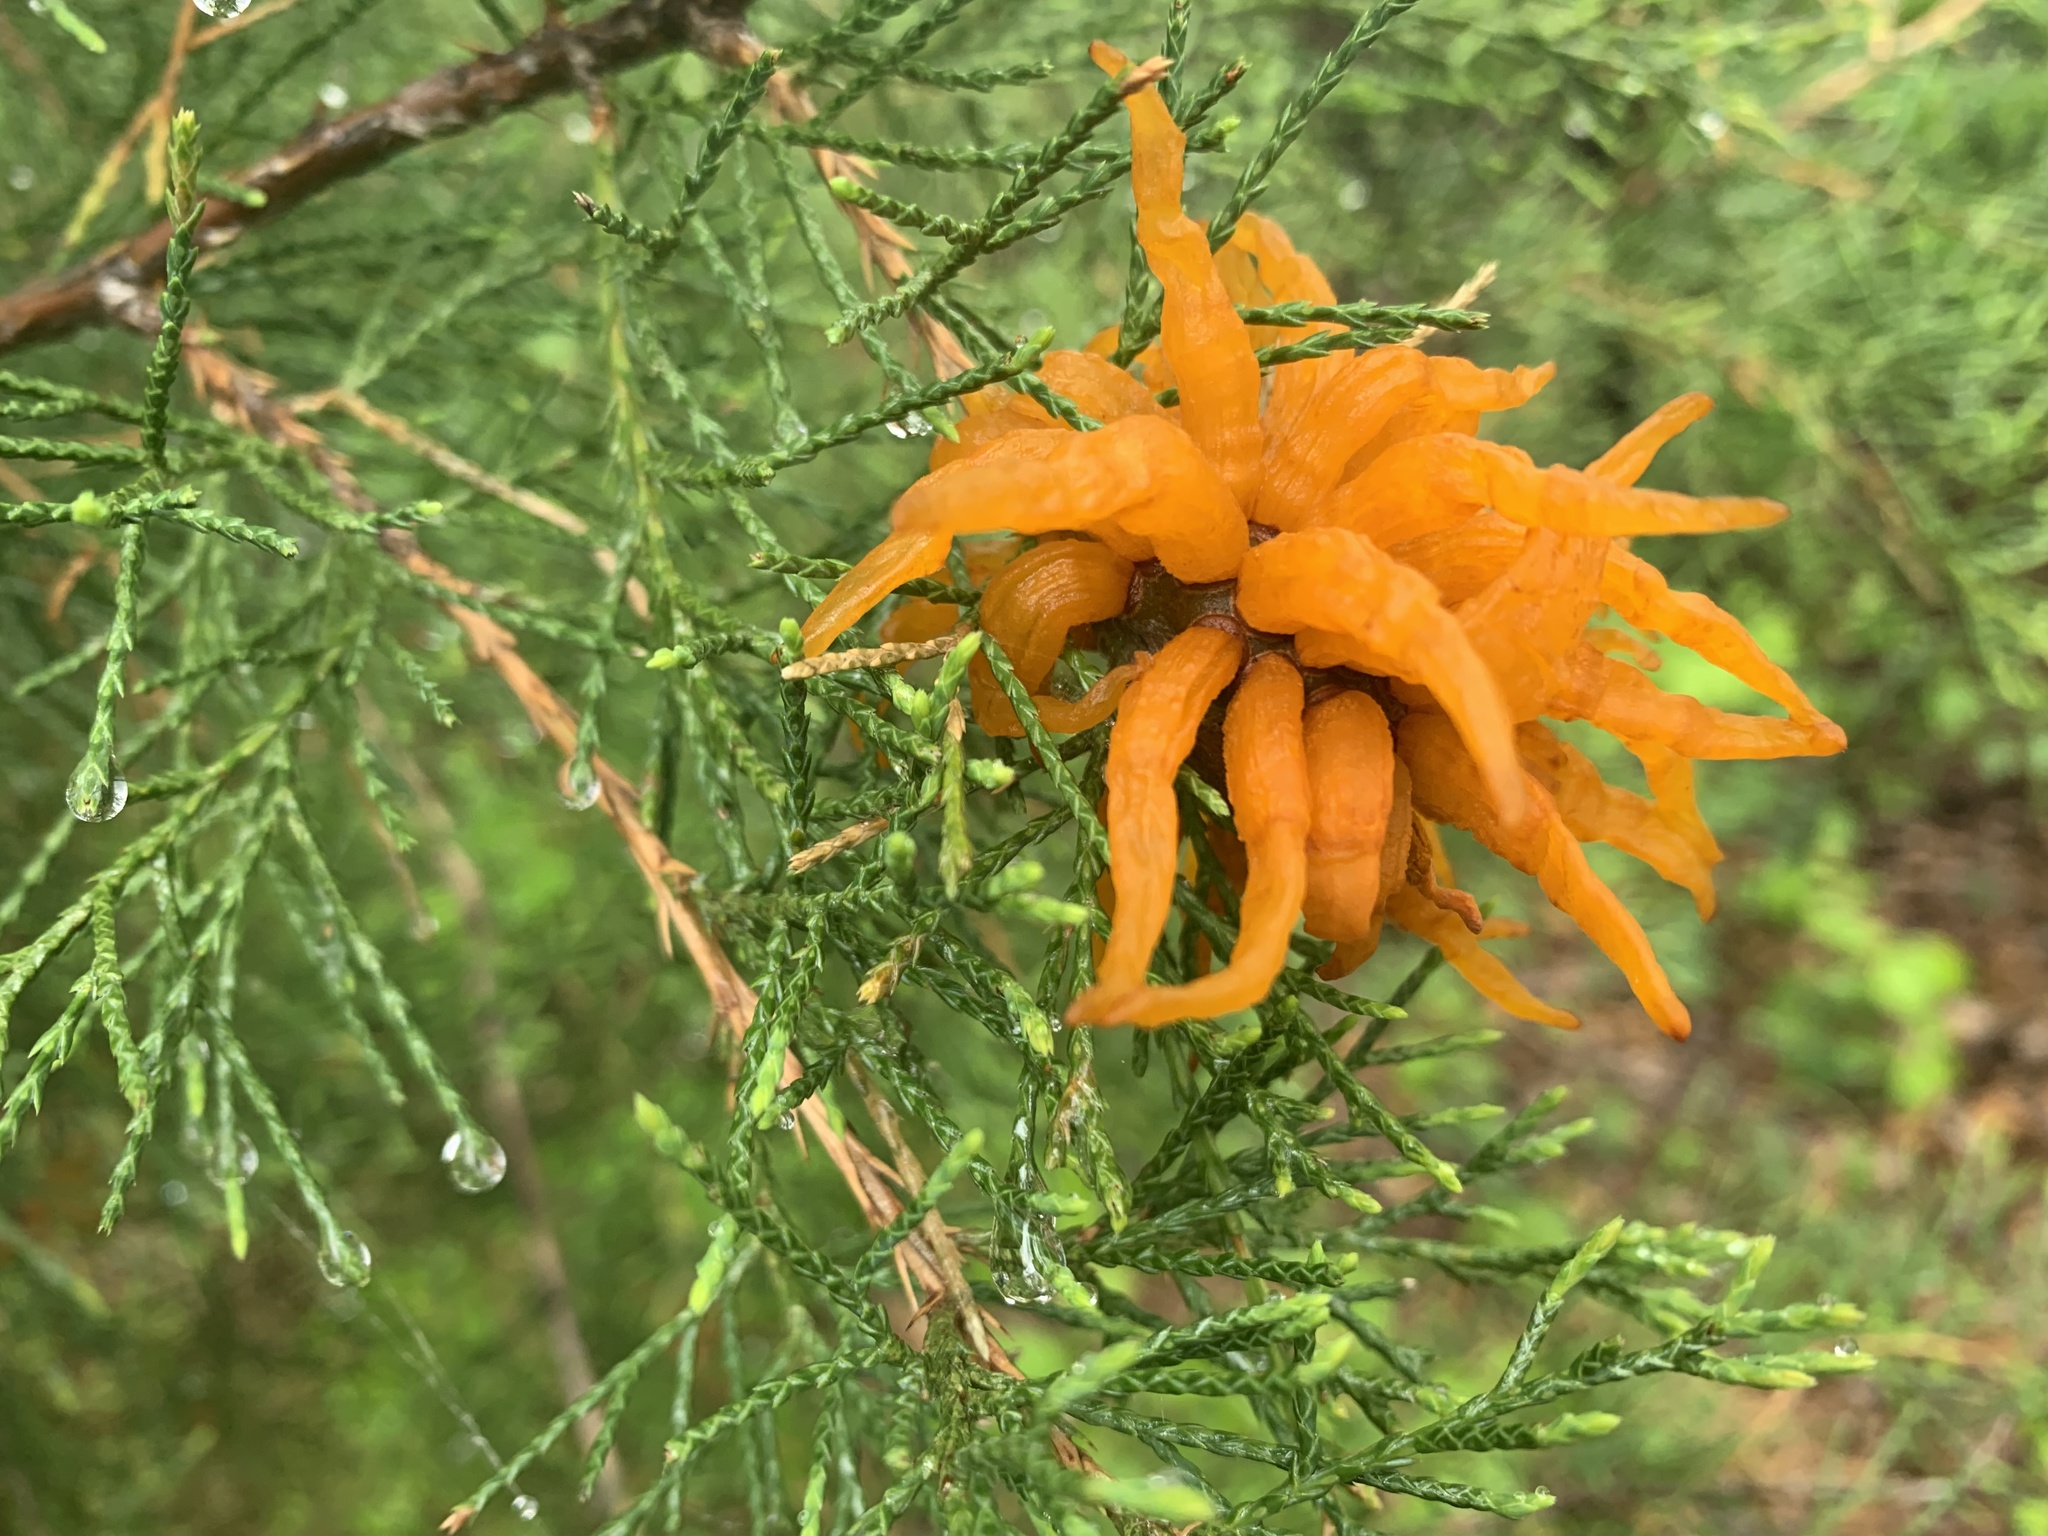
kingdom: Fungi
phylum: Basidiomycota
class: Pucciniomycetes
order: Pucciniales
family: Gymnosporangiaceae
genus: Gymnosporangium
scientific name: Gymnosporangium juniperi-virginianae
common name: Juniper-apple rust
